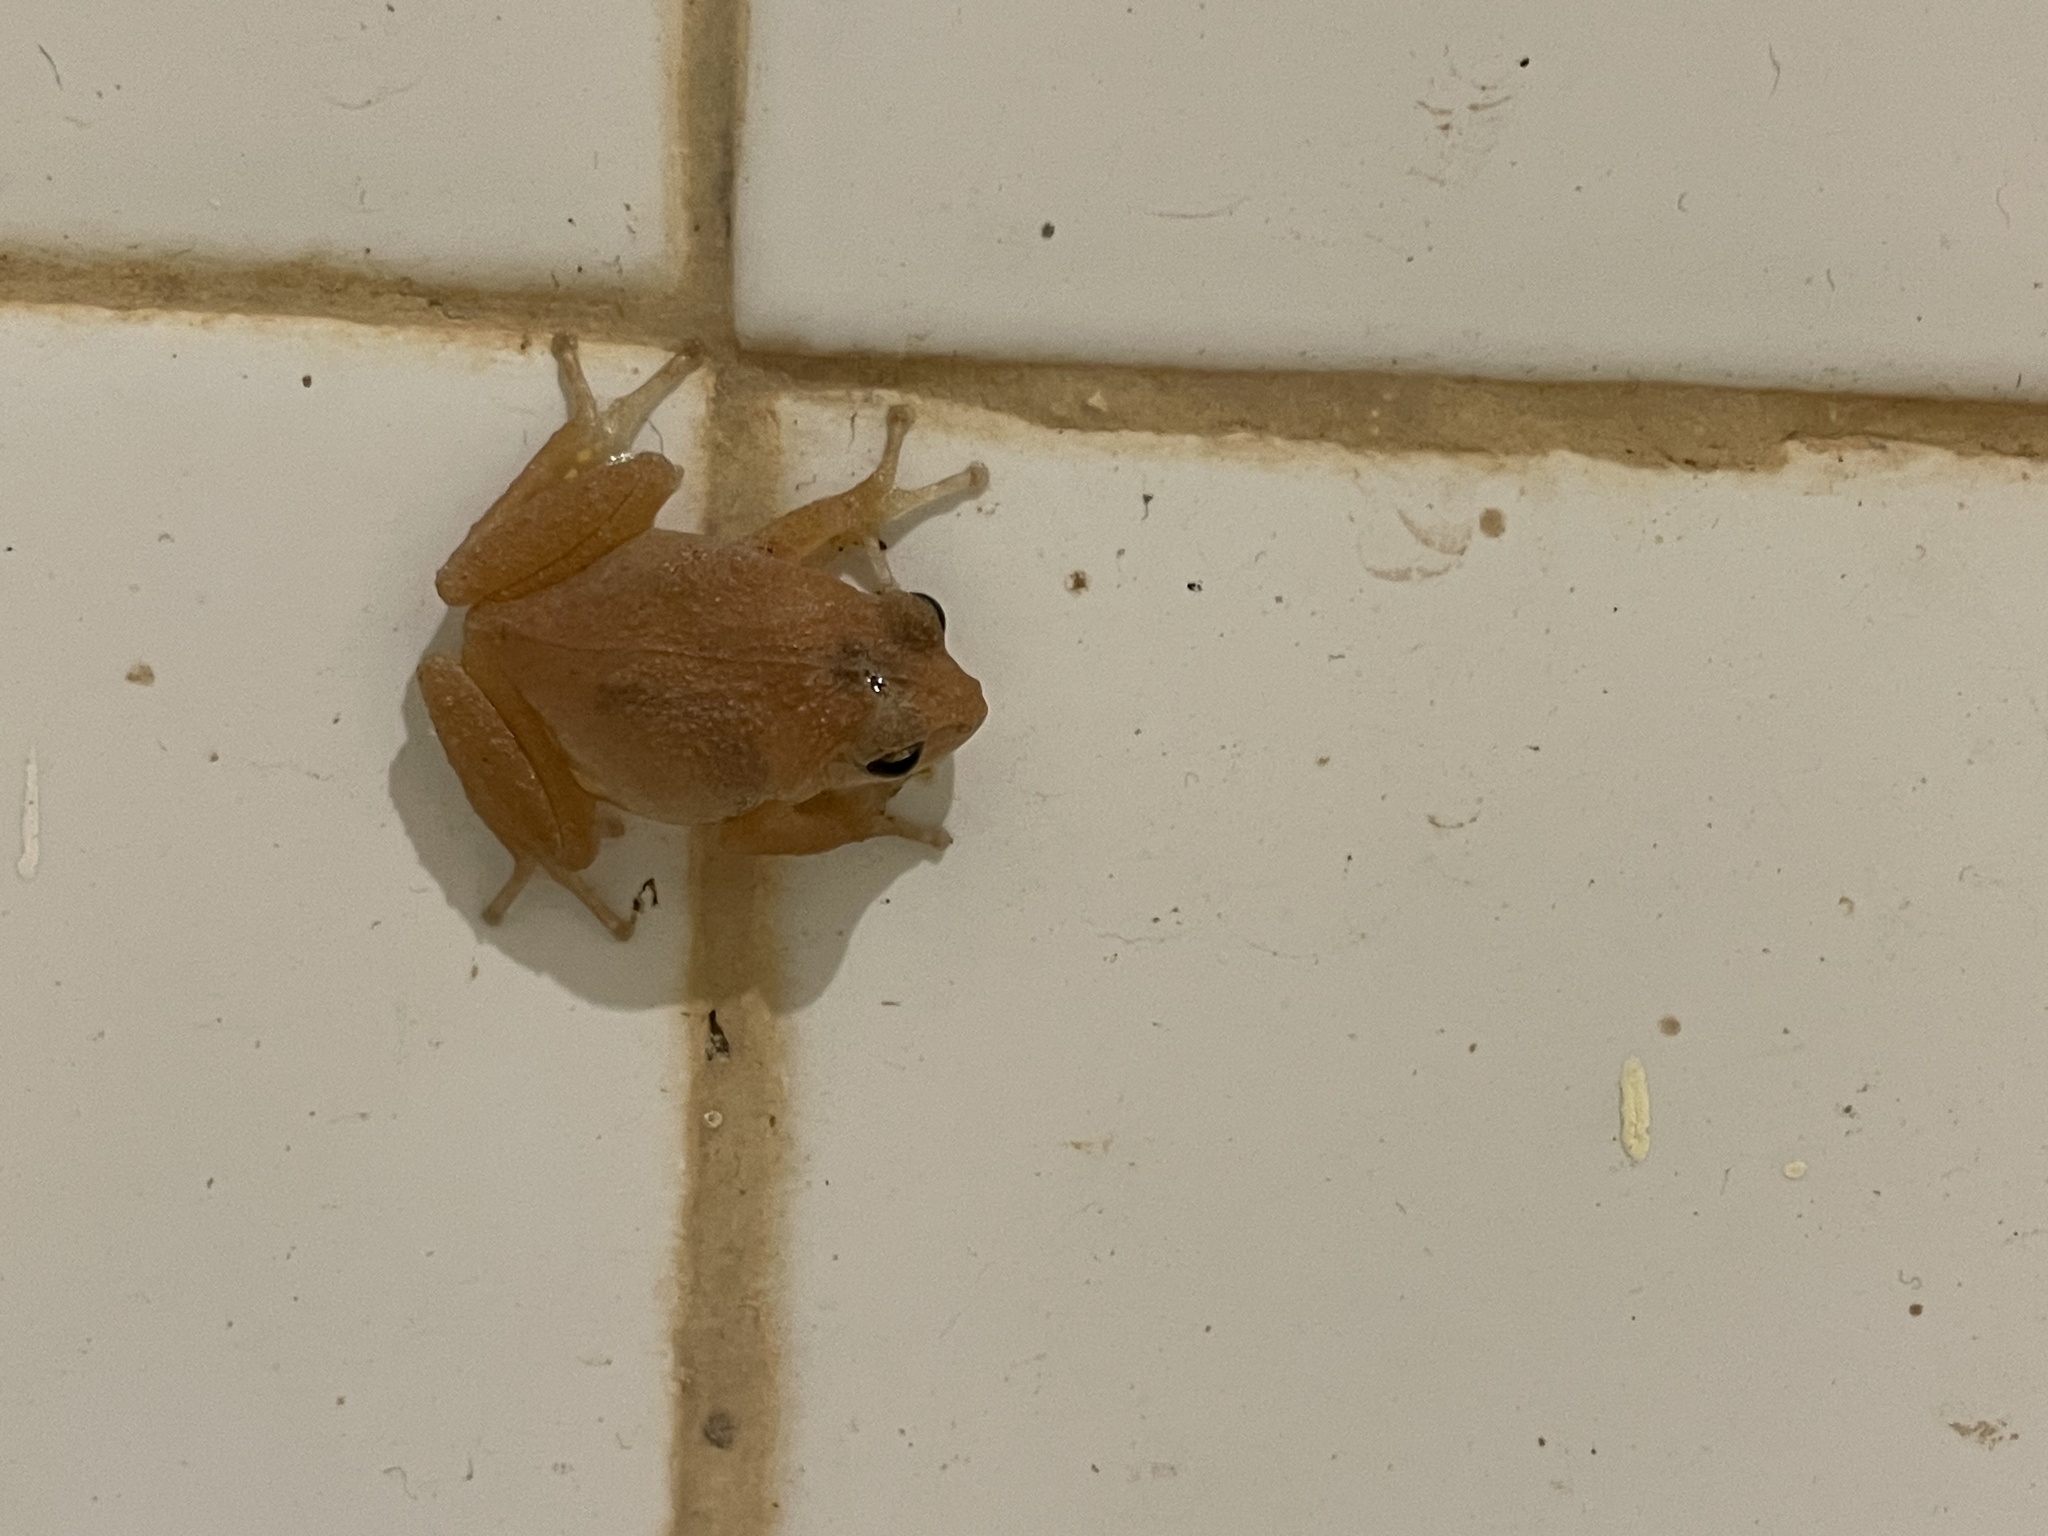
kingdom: Animalia
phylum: Chordata
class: Amphibia
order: Anura
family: Rhacophoridae
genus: Raorchestes
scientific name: Raorchestes charius
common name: Seshachar's bush frog
